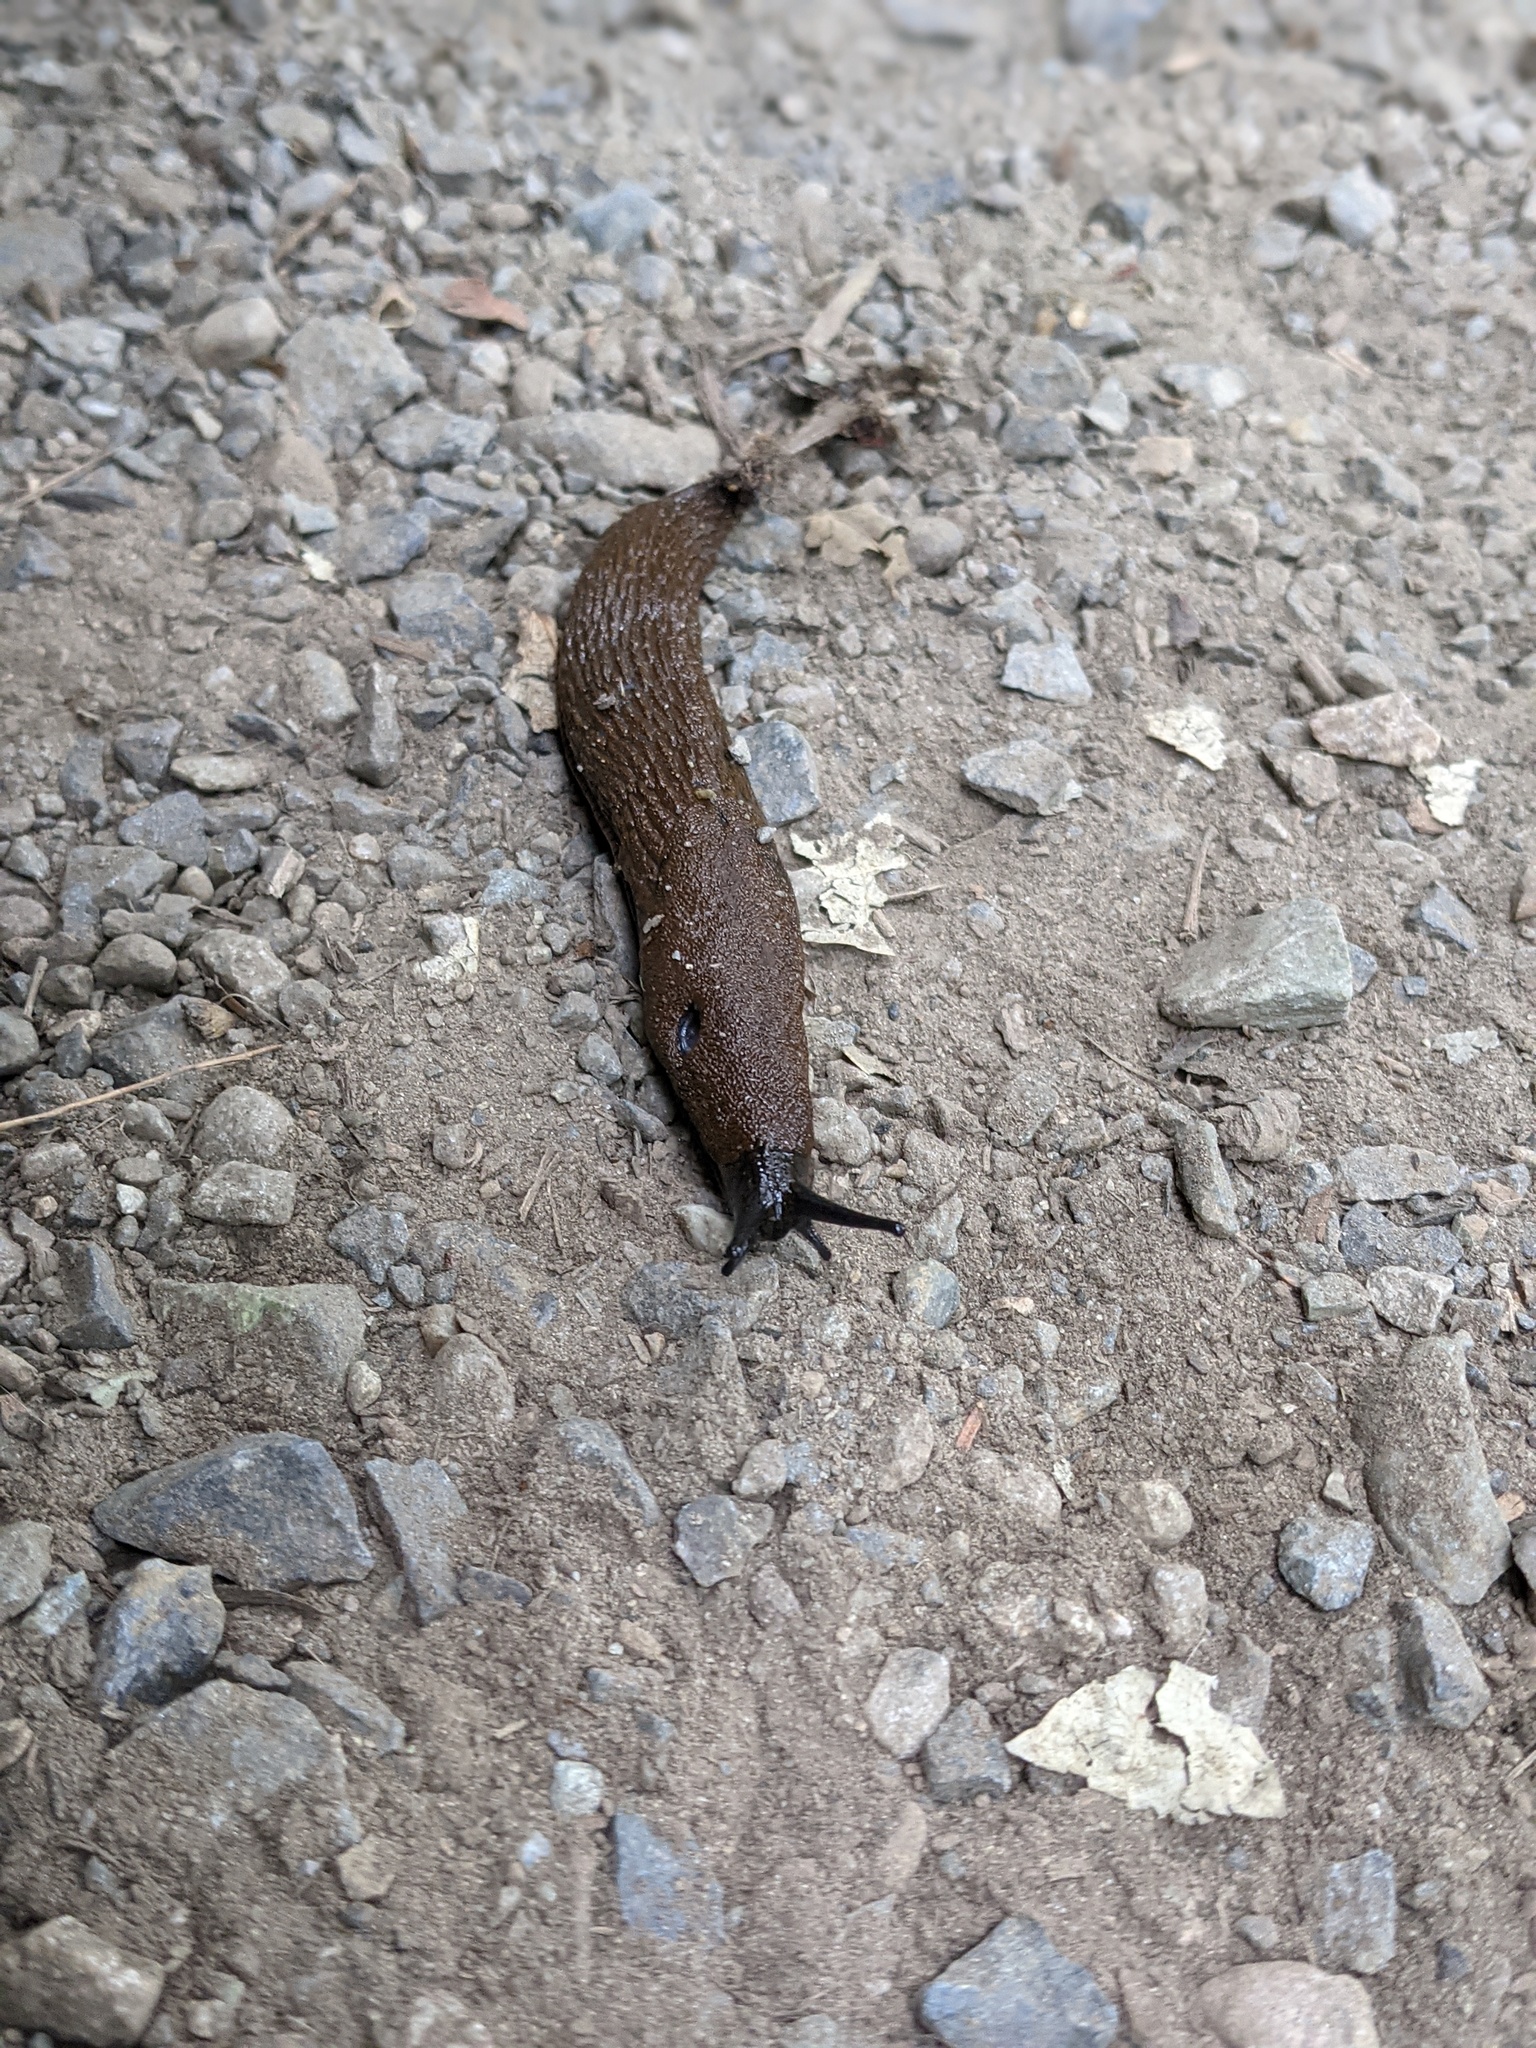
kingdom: Animalia
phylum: Mollusca
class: Gastropoda
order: Stylommatophora
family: Arionidae
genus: Arion
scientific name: Arion
